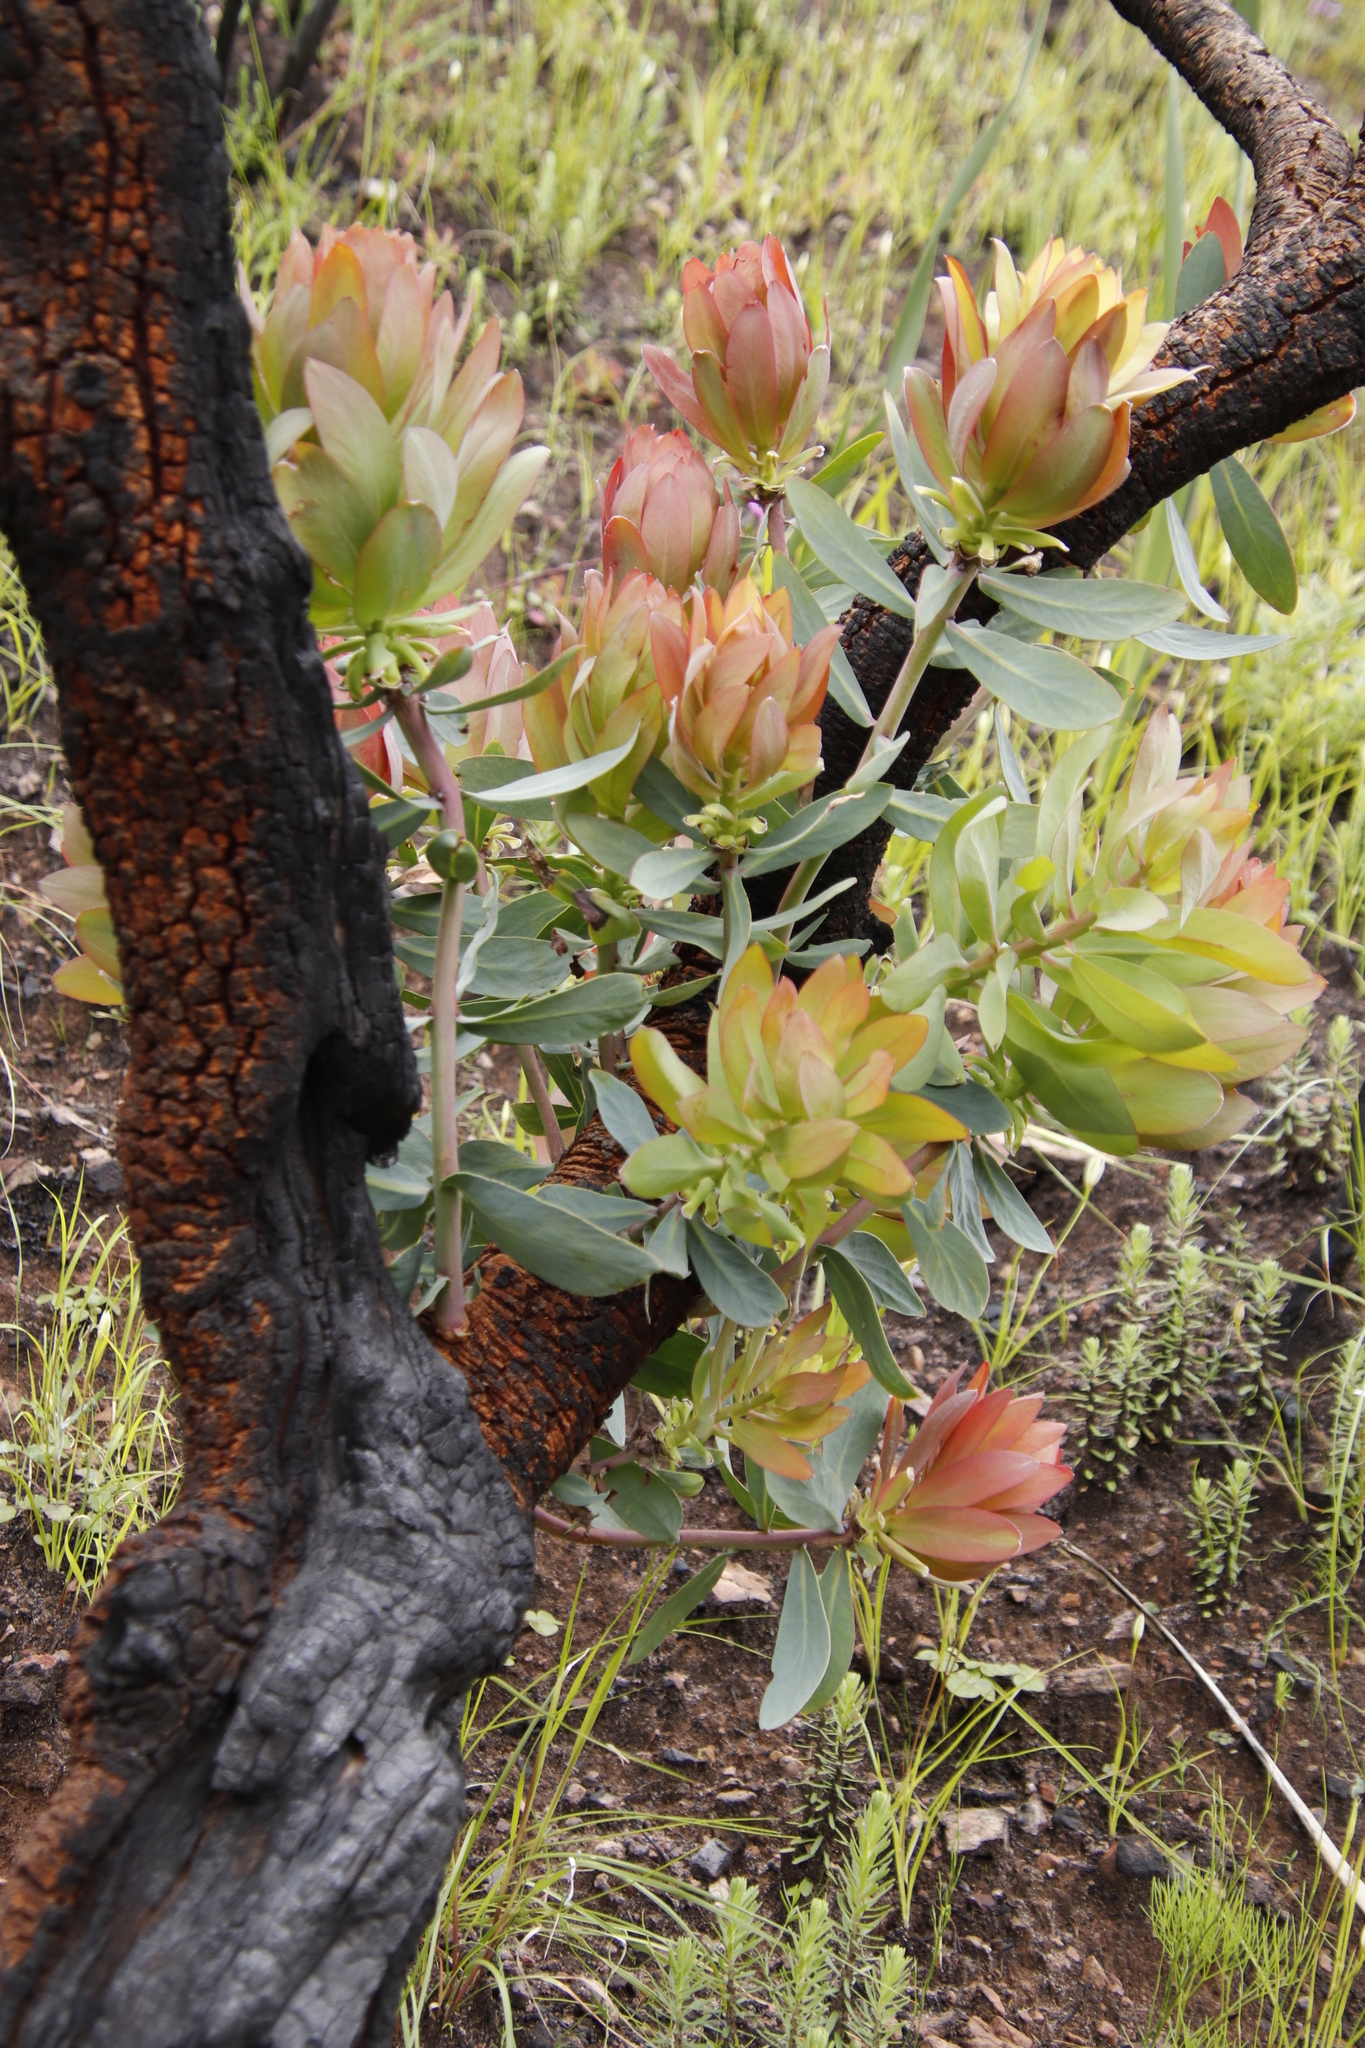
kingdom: Plantae
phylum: Tracheophyta
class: Magnoliopsida
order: Proteales
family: Proteaceae
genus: Protea
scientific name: Protea nitida
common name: Tree protea
